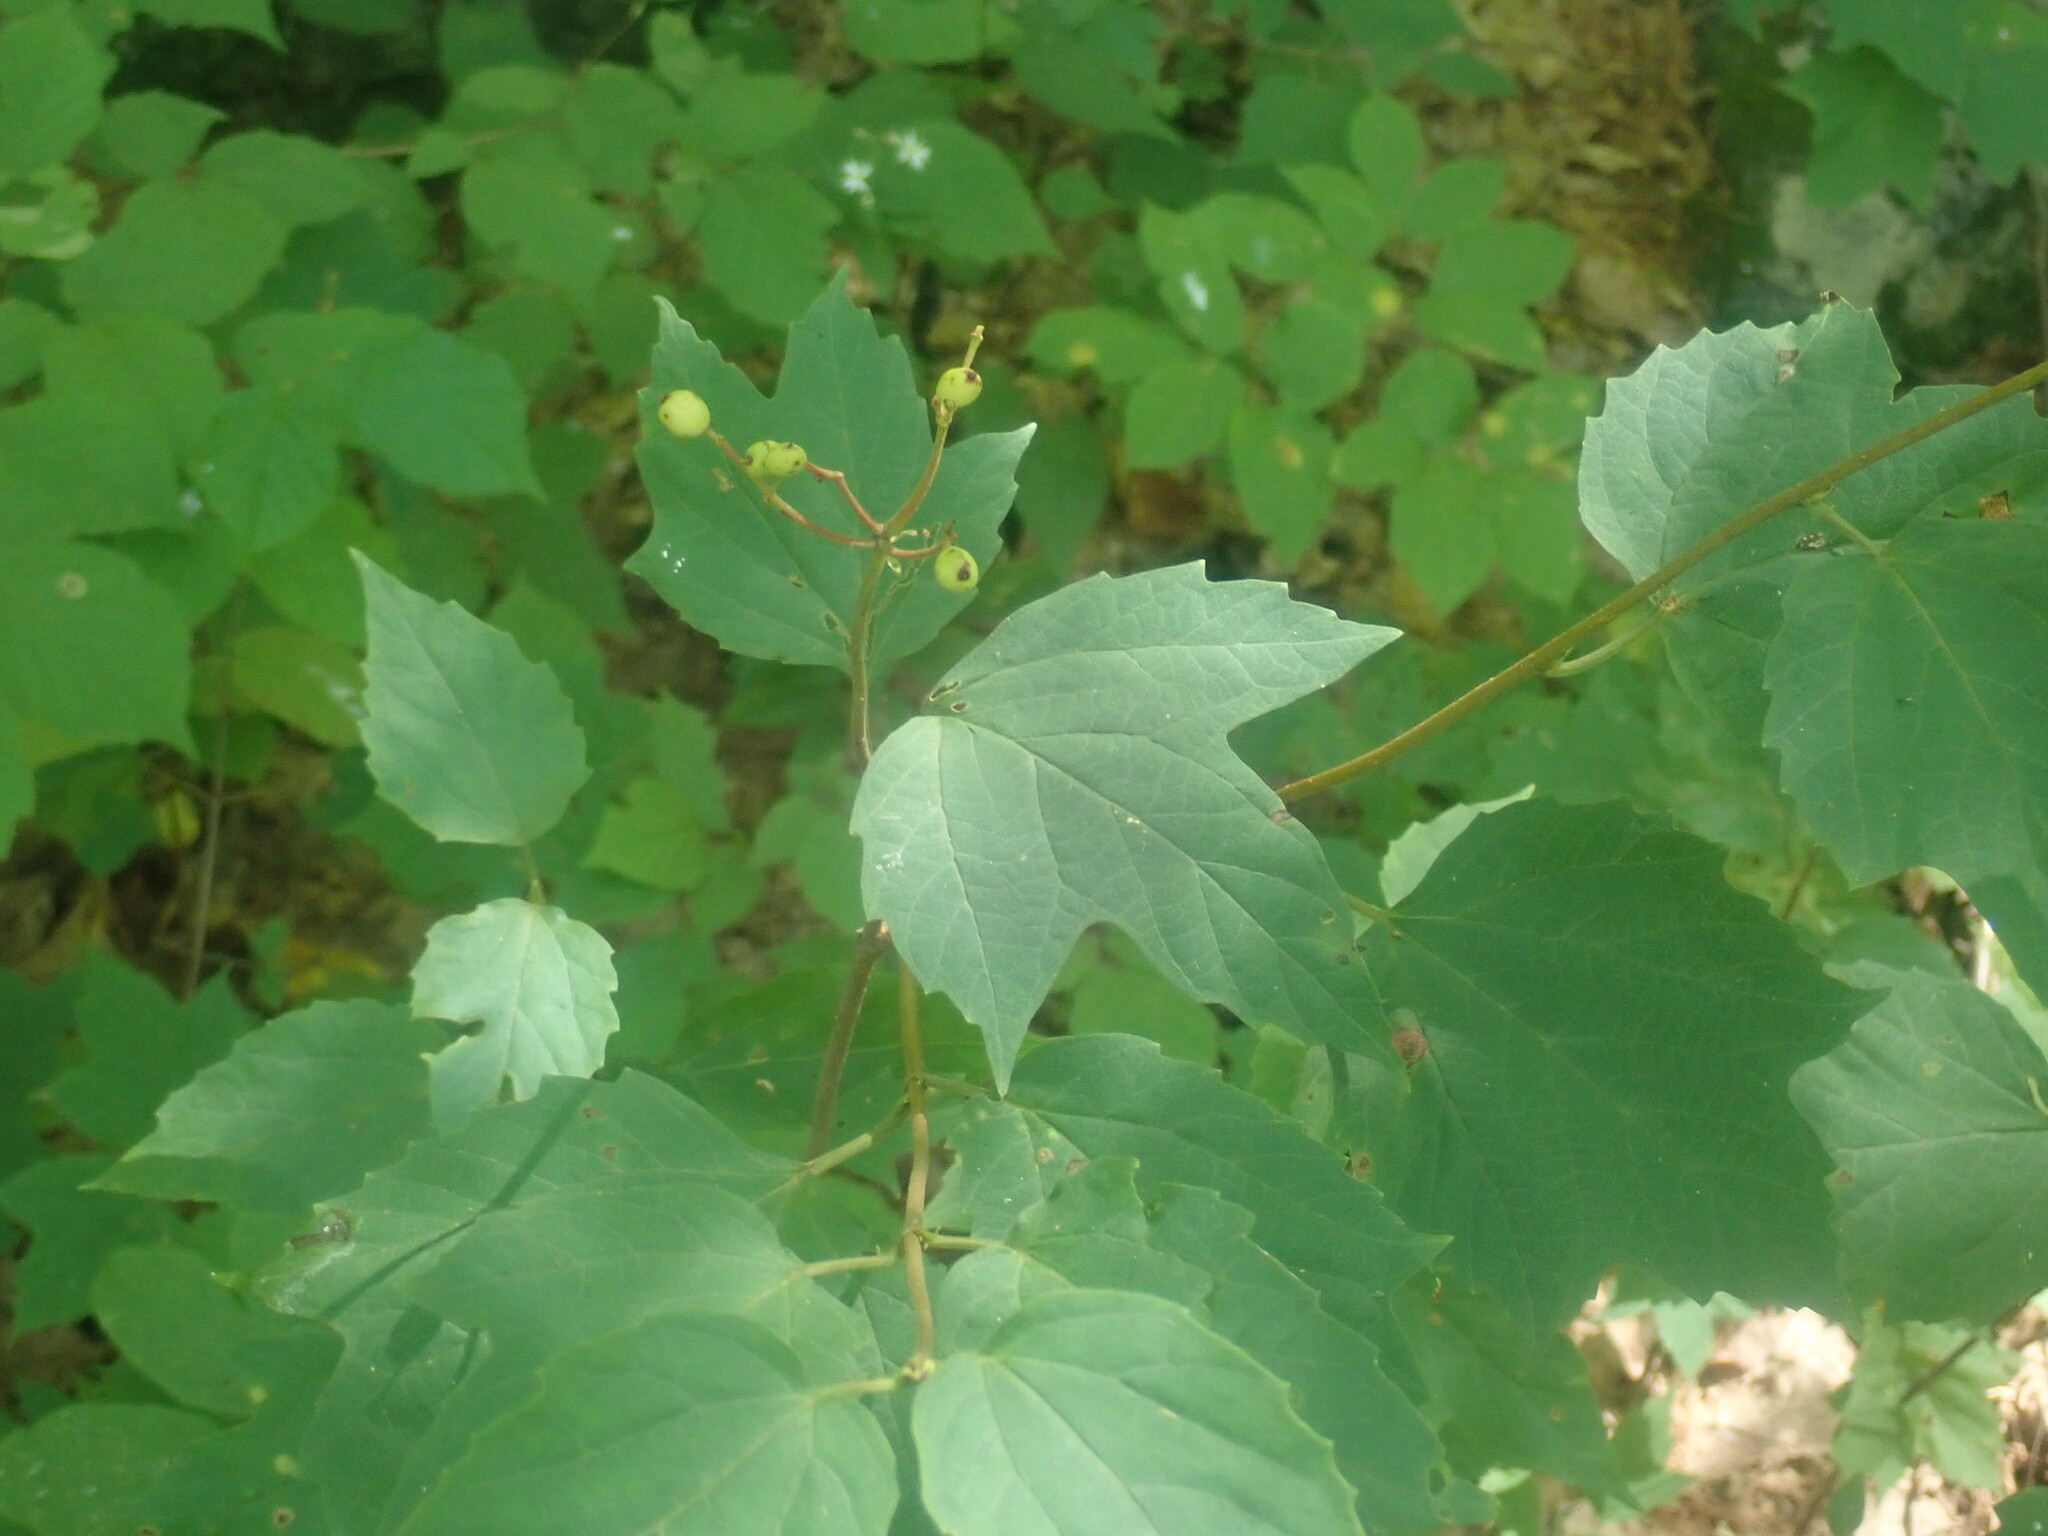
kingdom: Plantae
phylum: Tracheophyta
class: Magnoliopsida
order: Dipsacales
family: Viburnaceae
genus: Viburnum
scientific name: Viburnum acerifolium
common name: Dockmackie
